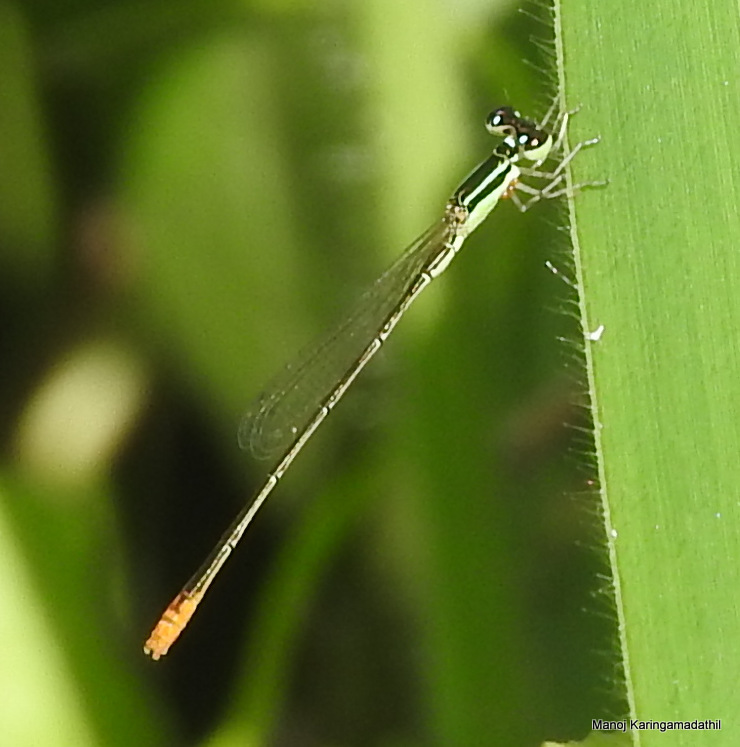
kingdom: Animalia
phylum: Arthropoda
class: Insecta
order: Odonata
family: Coenagrionidae
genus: Agriocnemis
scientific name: Agriocnemis pygmaea
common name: Pygmy wisp
